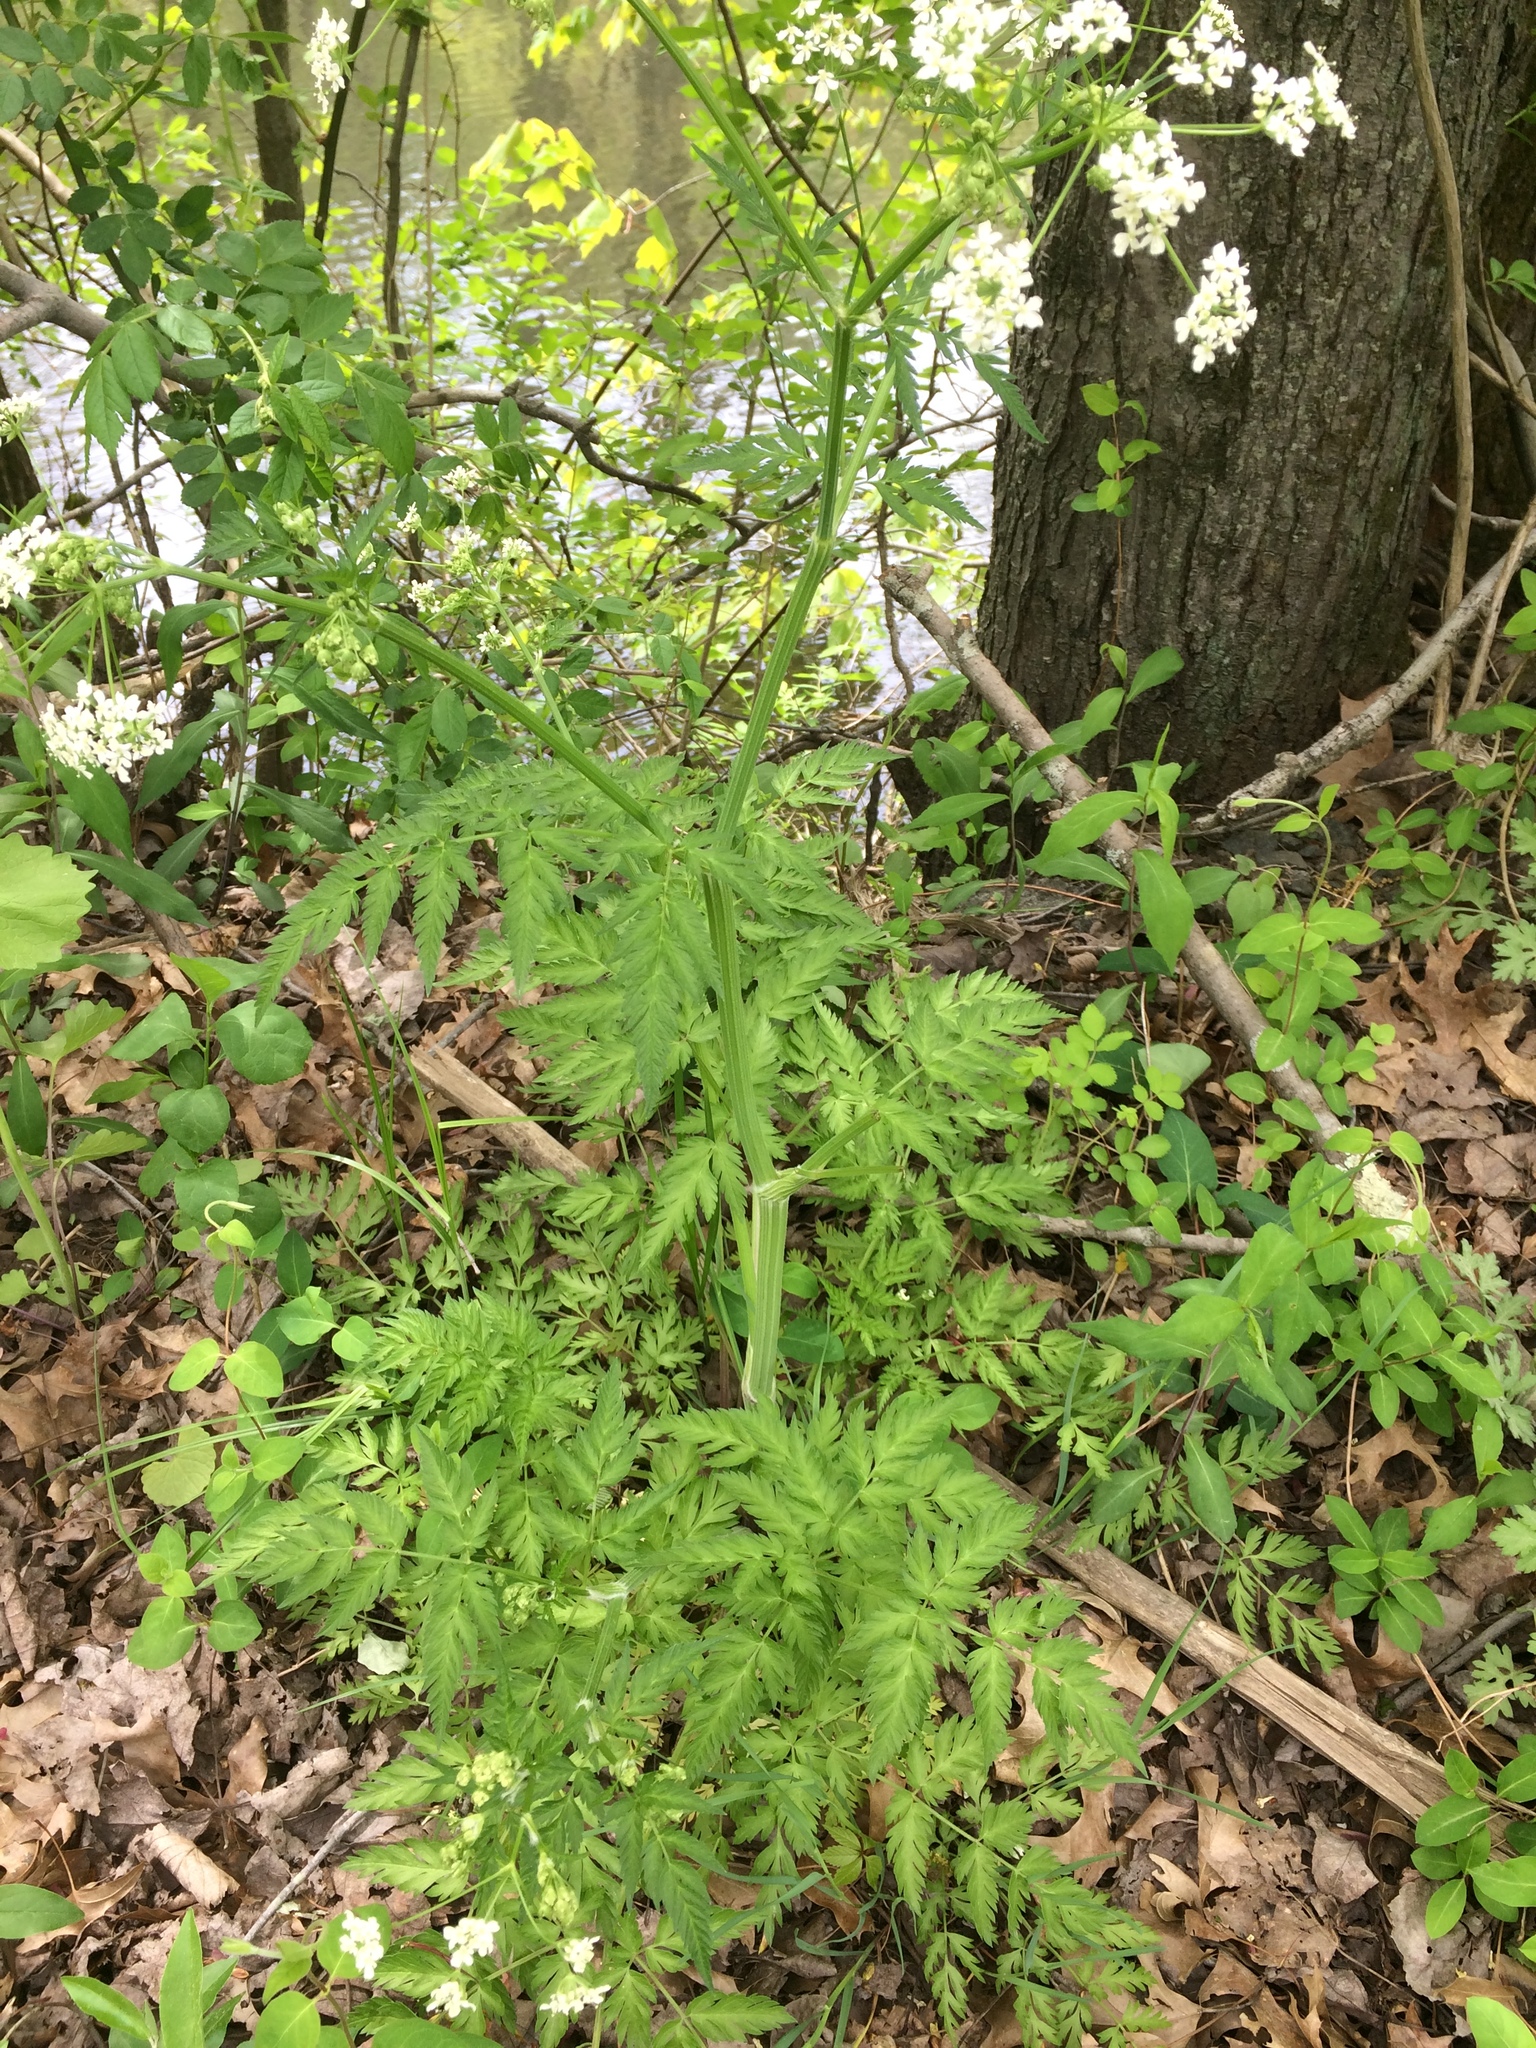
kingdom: Plantae
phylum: Tracheophyta
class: Magnoliopsida
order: Apiales
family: Apiaceae
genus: Anthriscus
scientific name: Anthriscus sylvestris
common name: Cow parsley
